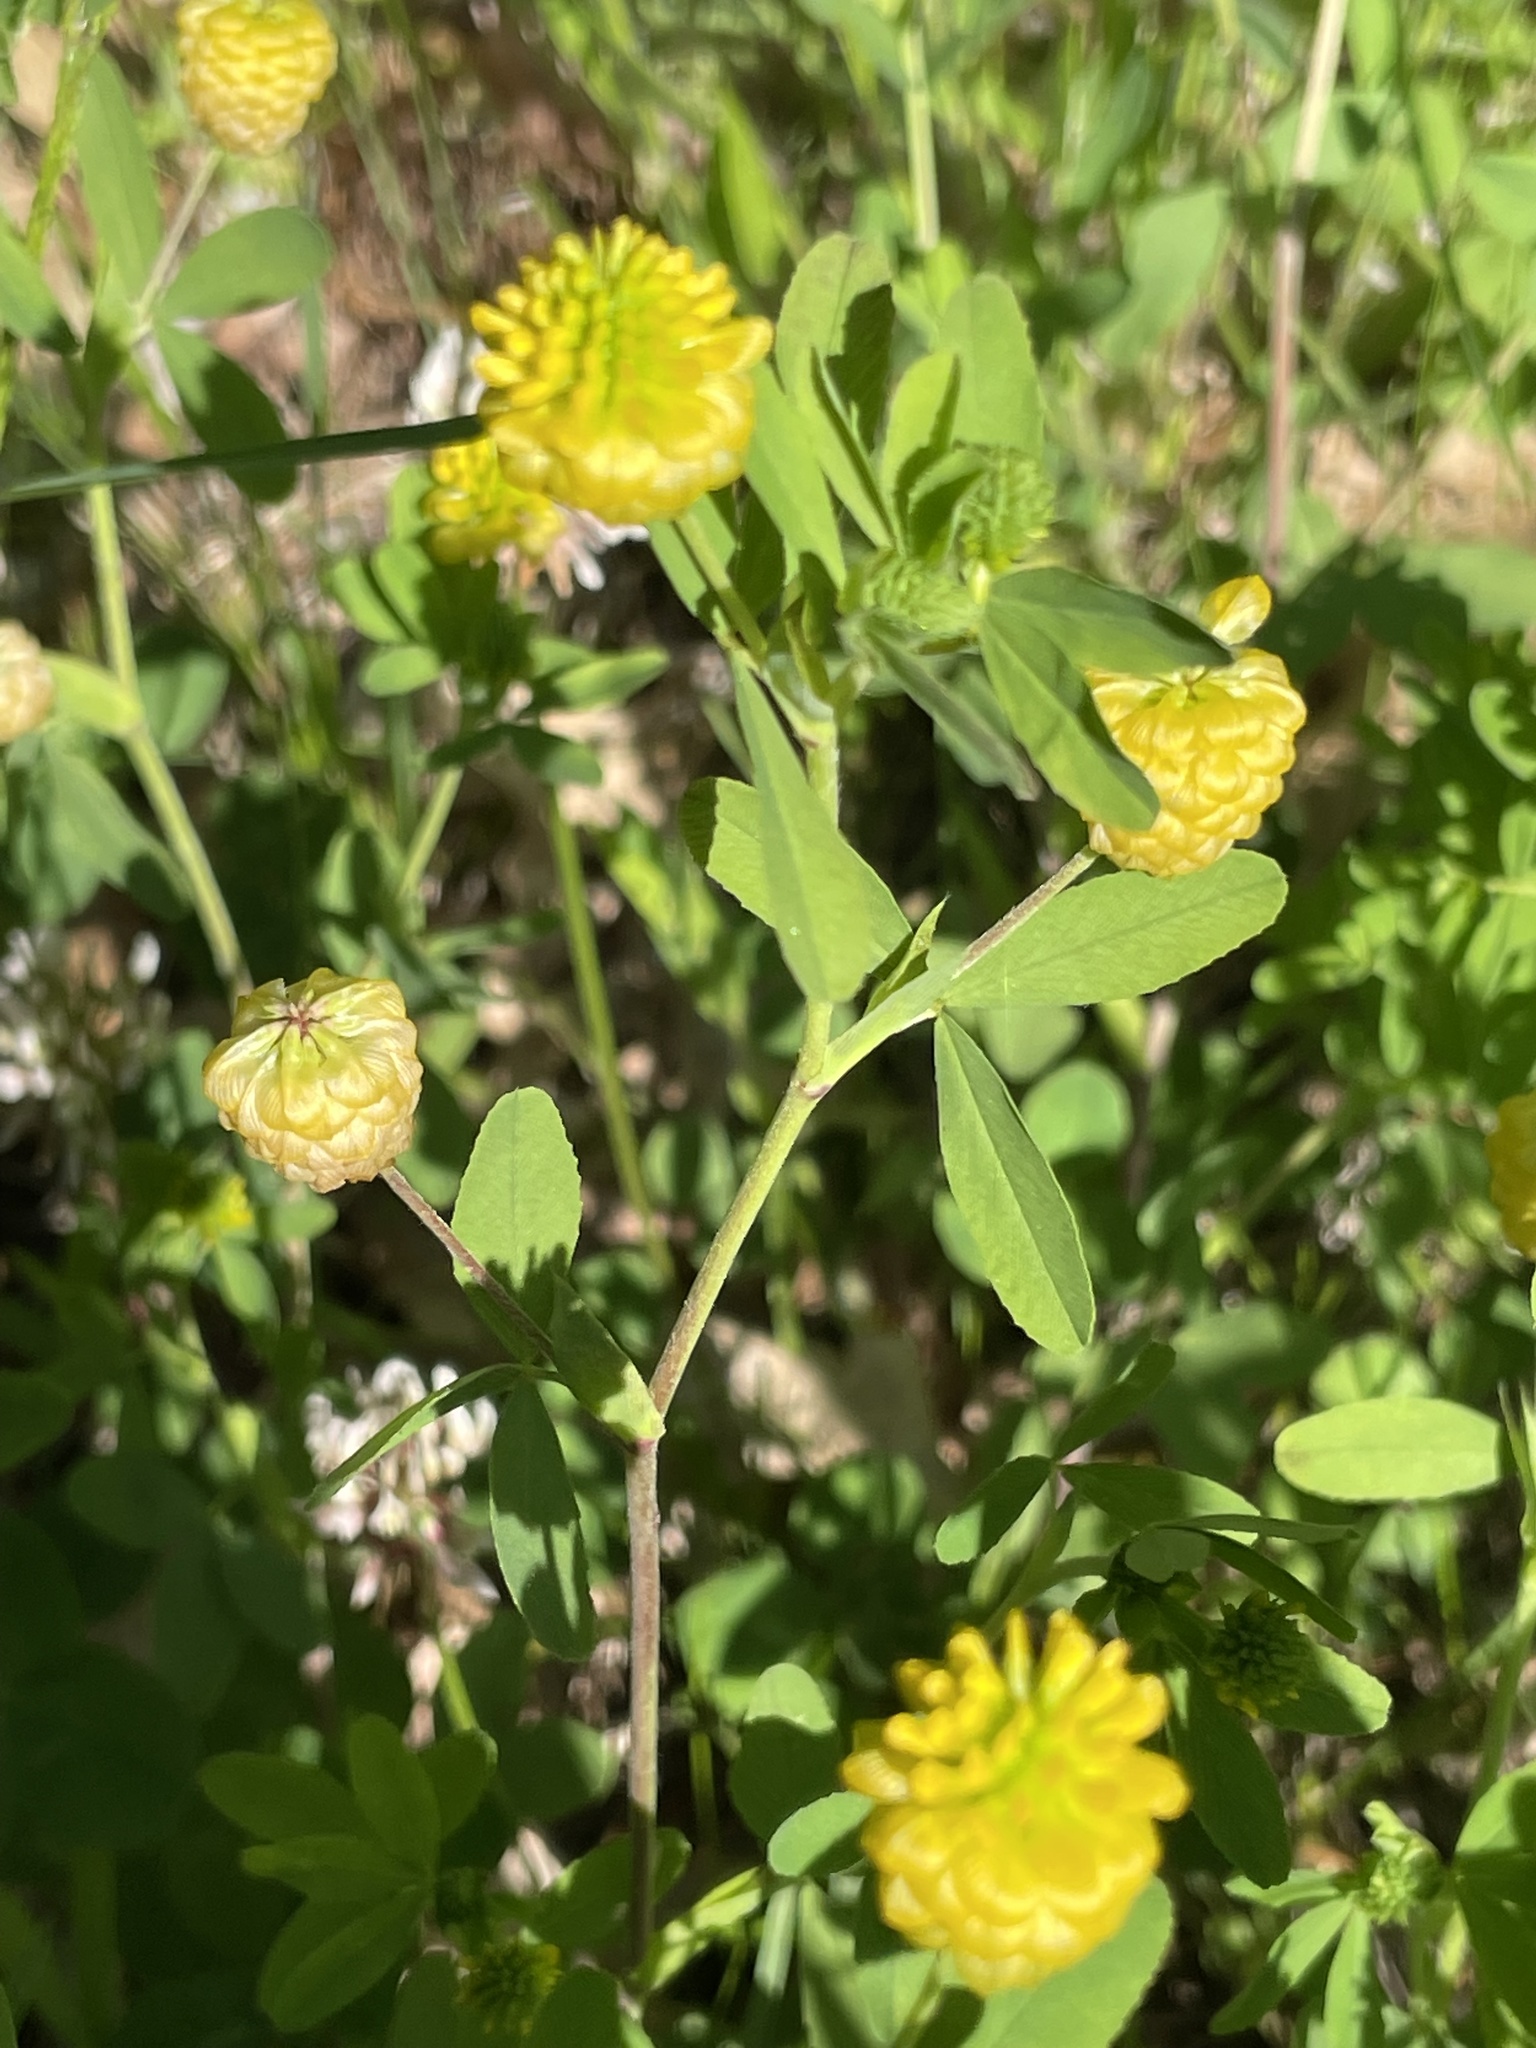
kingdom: Plantae
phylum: Tracheophyta
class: Magnoliopsida
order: Fabales
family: Fabaceae
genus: Trifolium
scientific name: Trifolium aureum
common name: Golden clover
